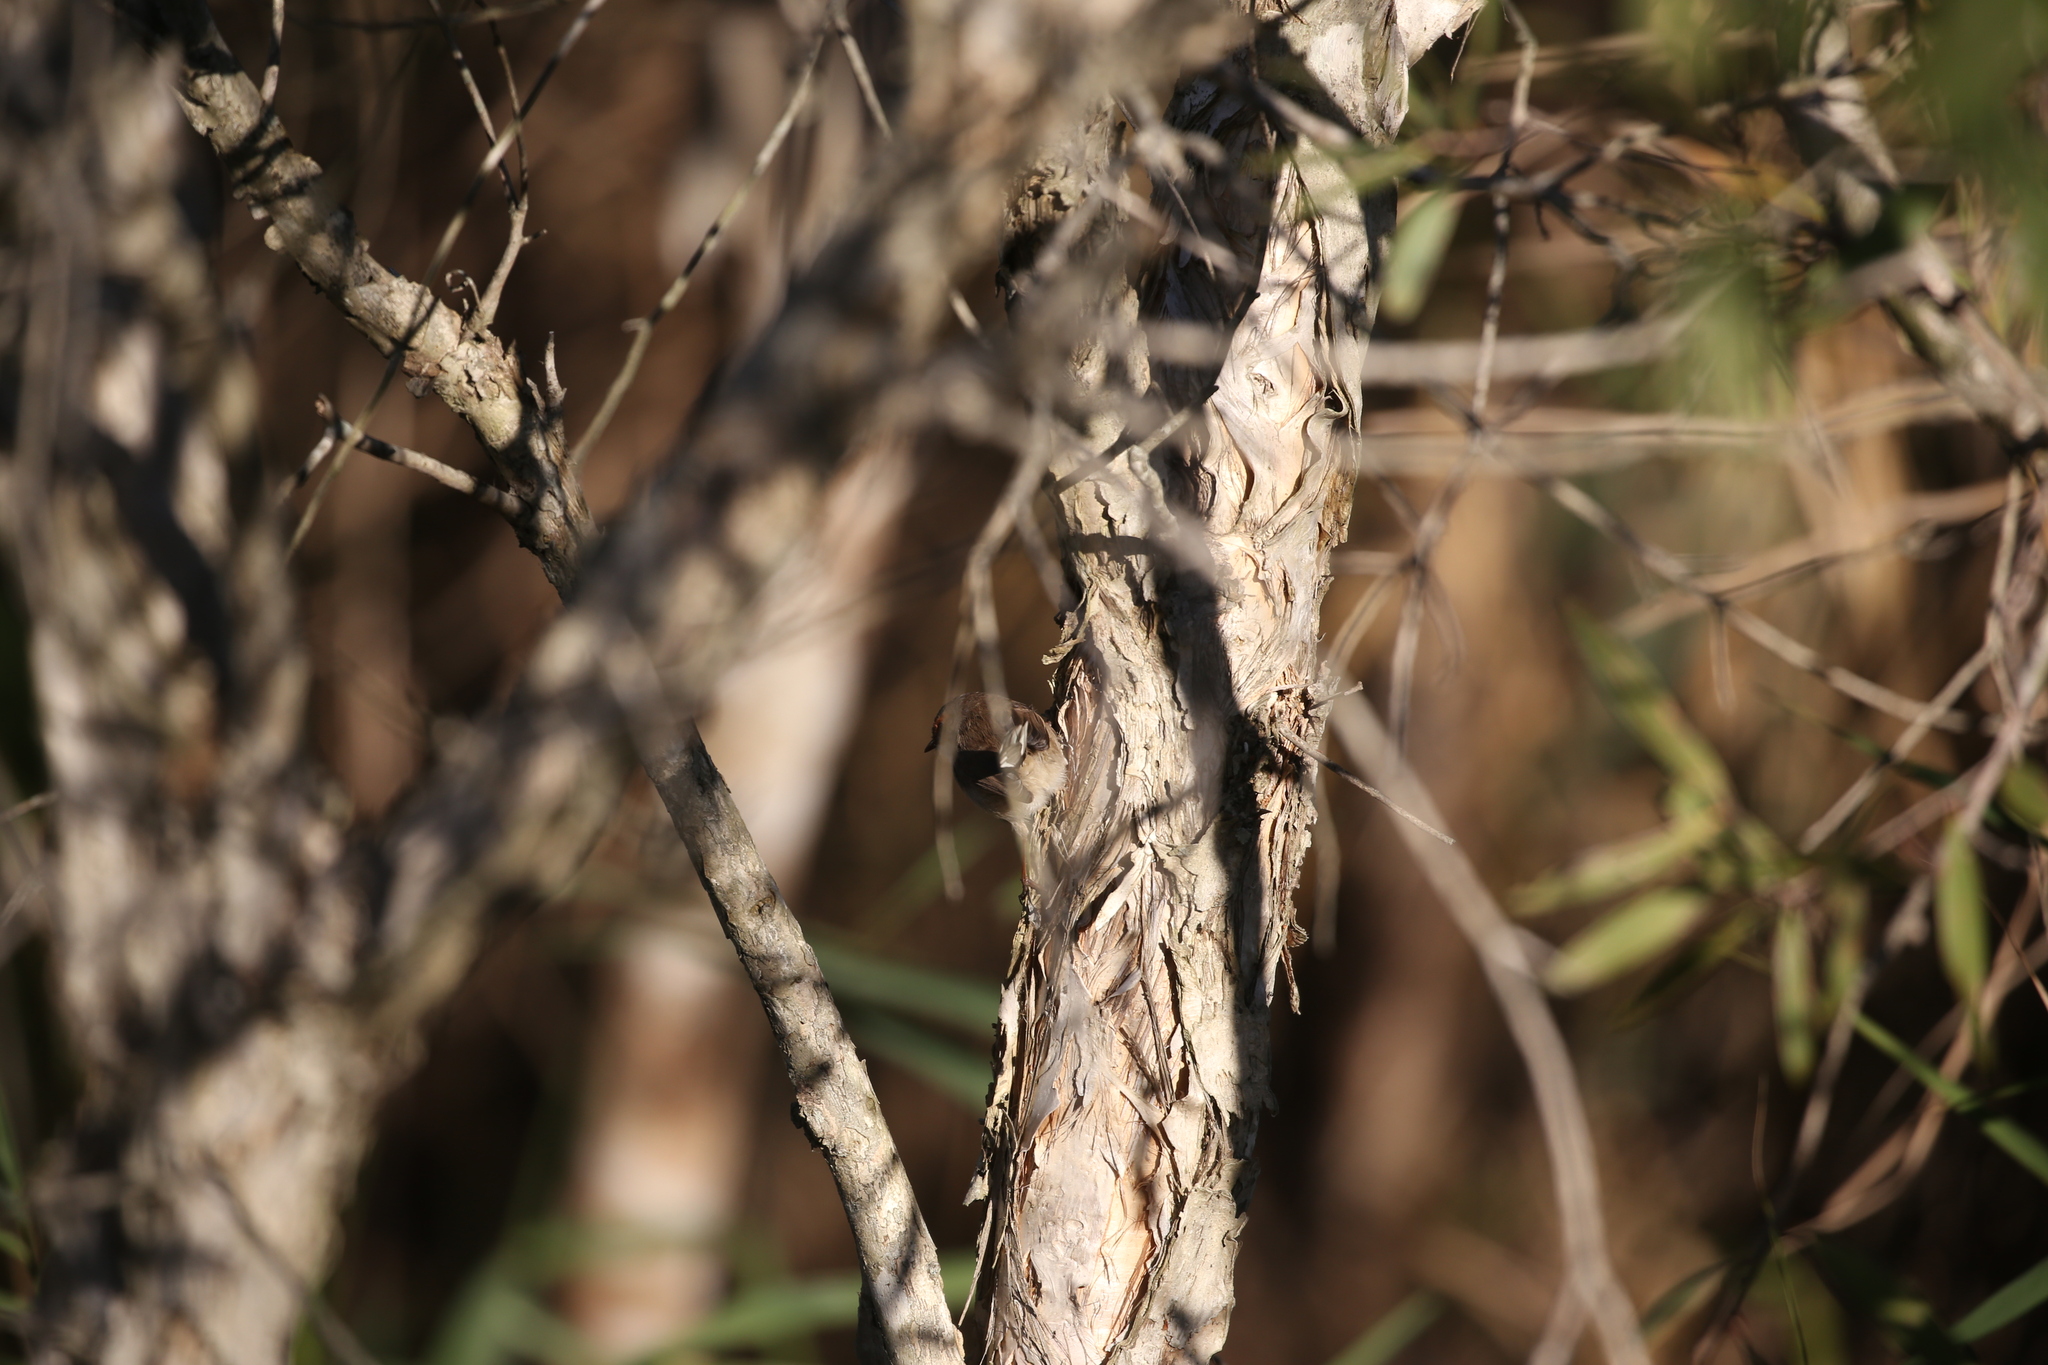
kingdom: Animalia
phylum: Chordata
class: Aves
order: Passeriformes
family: Maluridae
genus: Malurus
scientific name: Malurus cyaneus
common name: Superb fairywren
